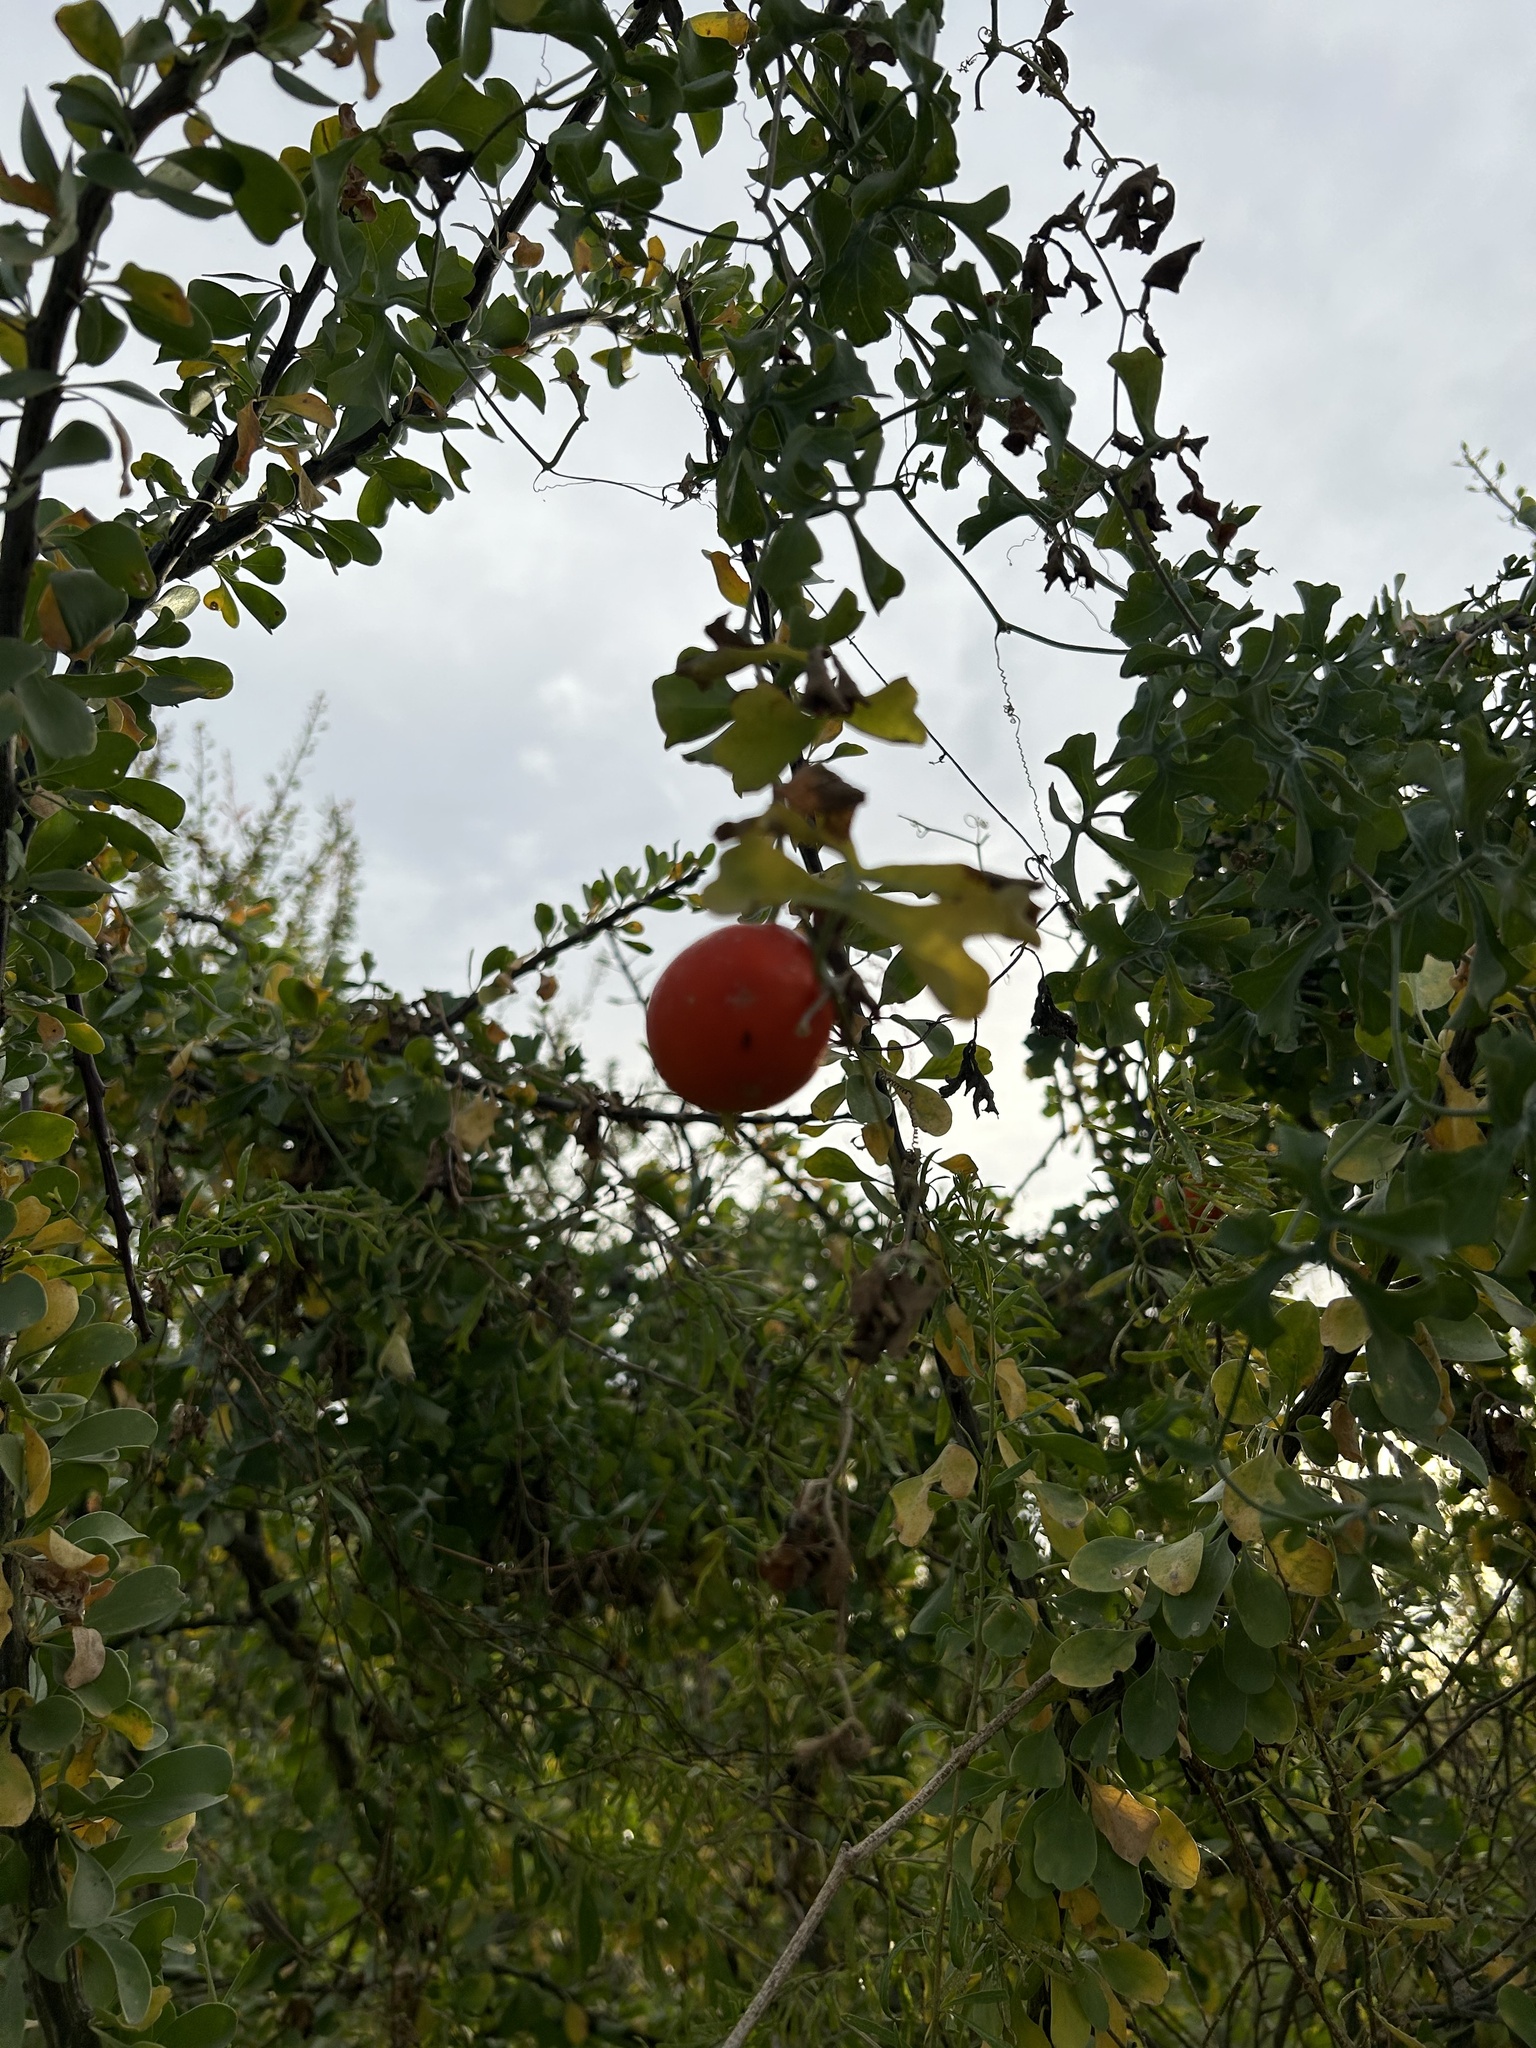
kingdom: Plantae
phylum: Tracheophyta
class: Magnoliopsida
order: Cucurbitales
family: Cucurbitaceae
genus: Ibervillea
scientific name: Ibervillea sonorae
